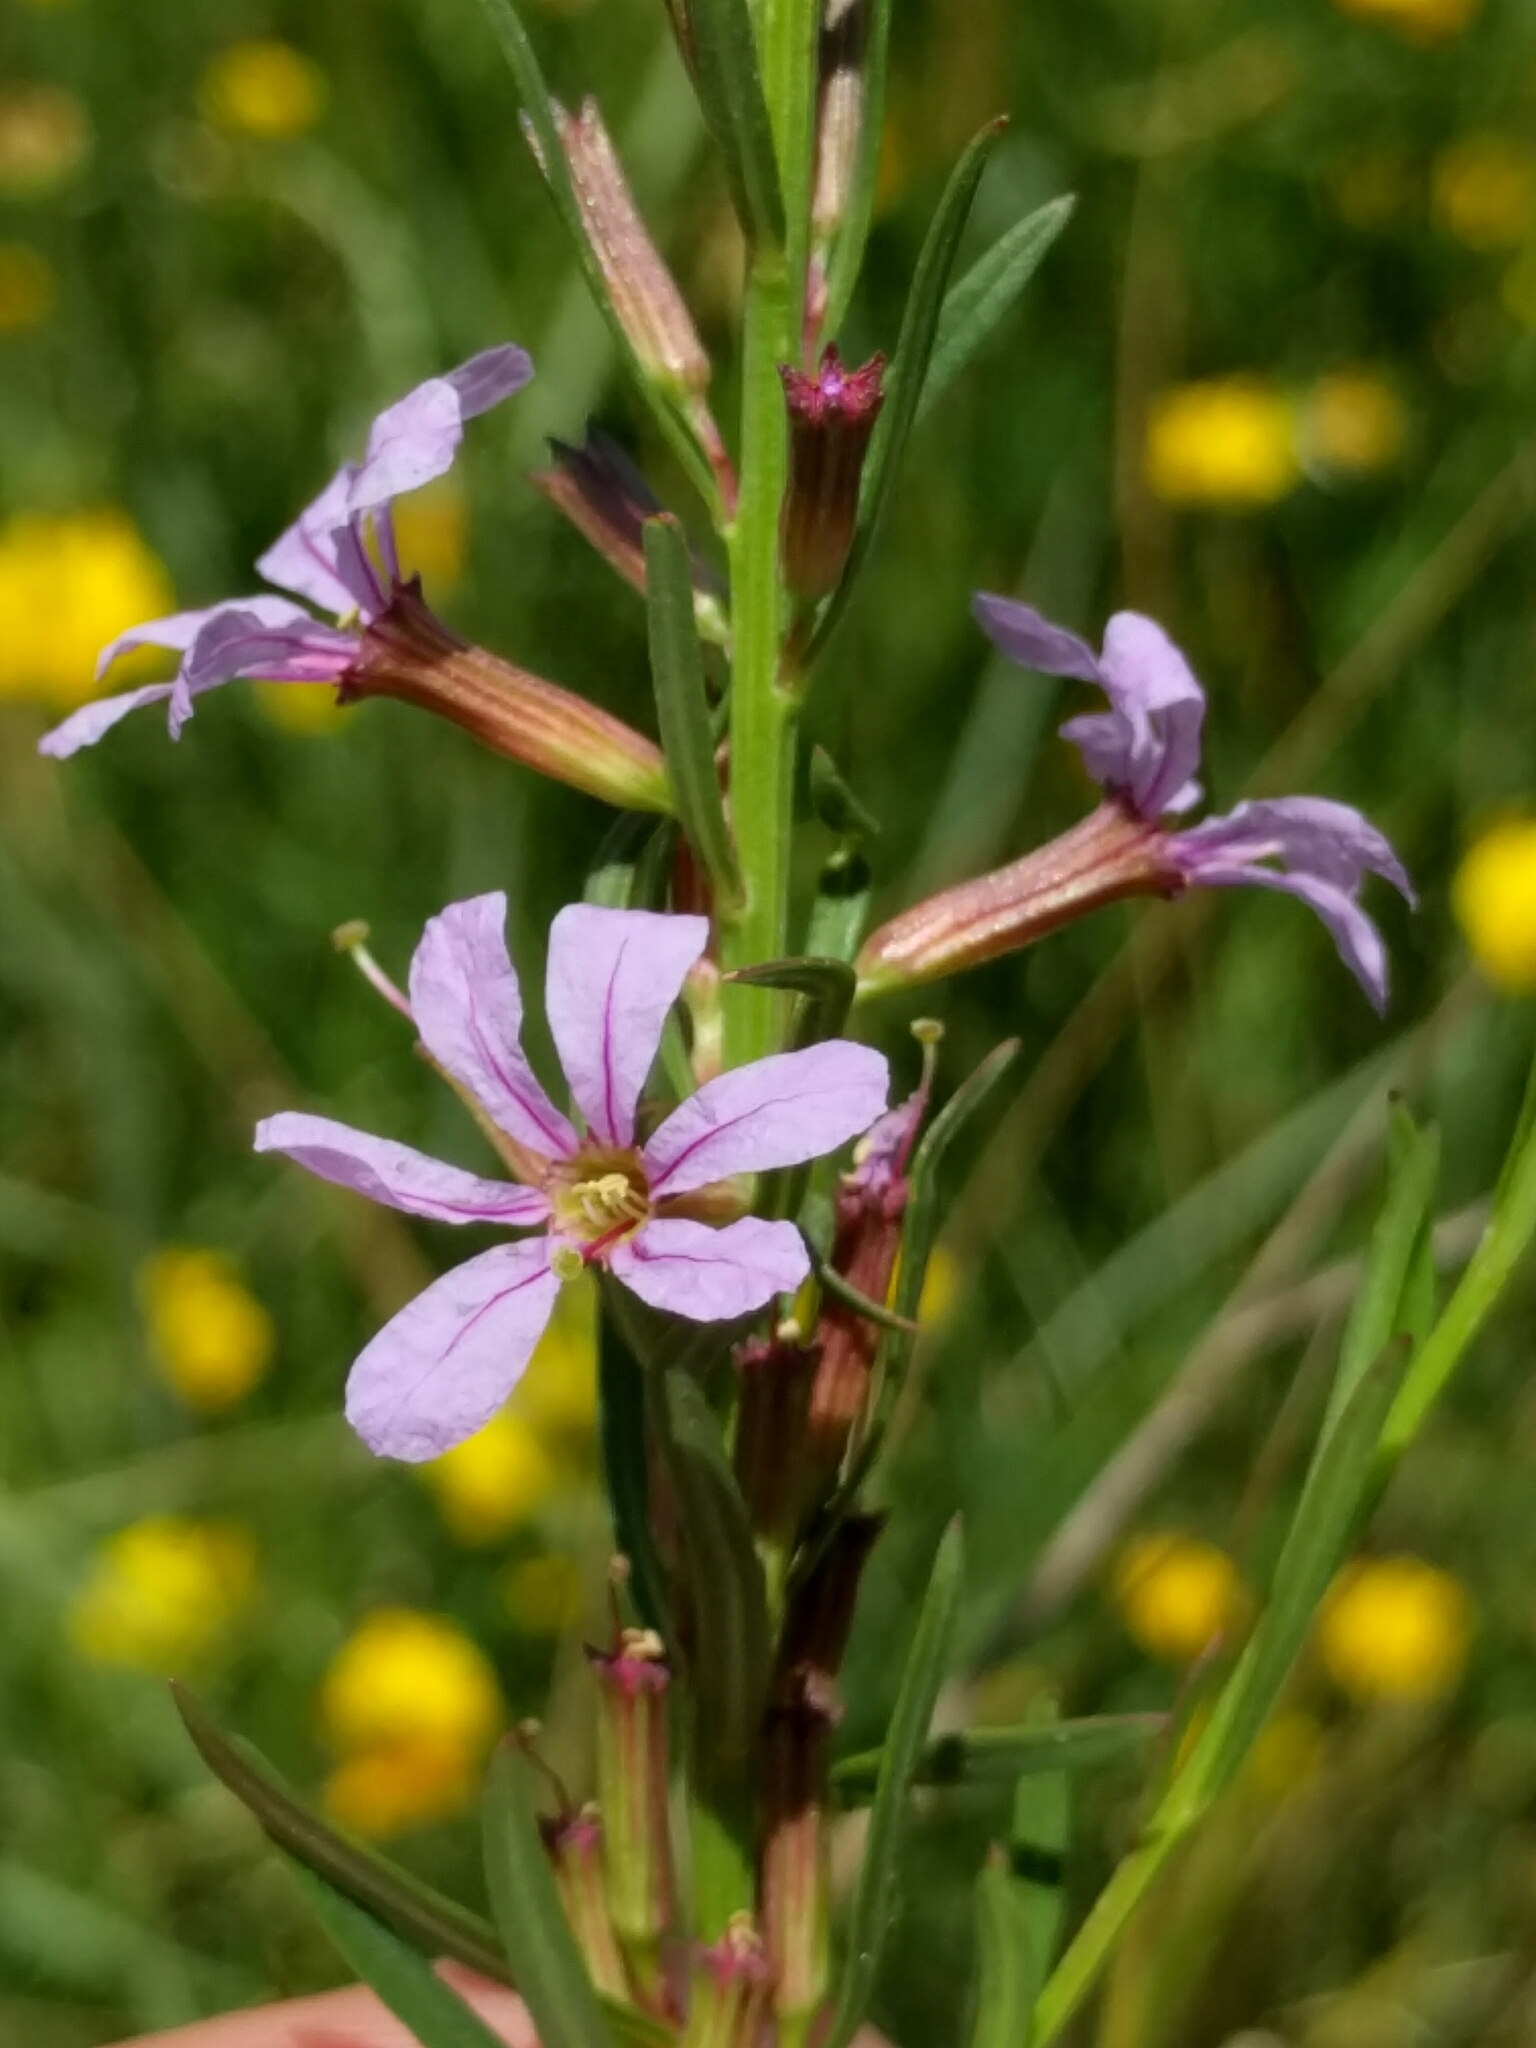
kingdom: Plantae
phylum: Tracheophyta
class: Magnoliopsida
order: Myrtales
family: Lythraceae
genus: Lythrum
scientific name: Lythrum californicum
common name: California loosestrife
